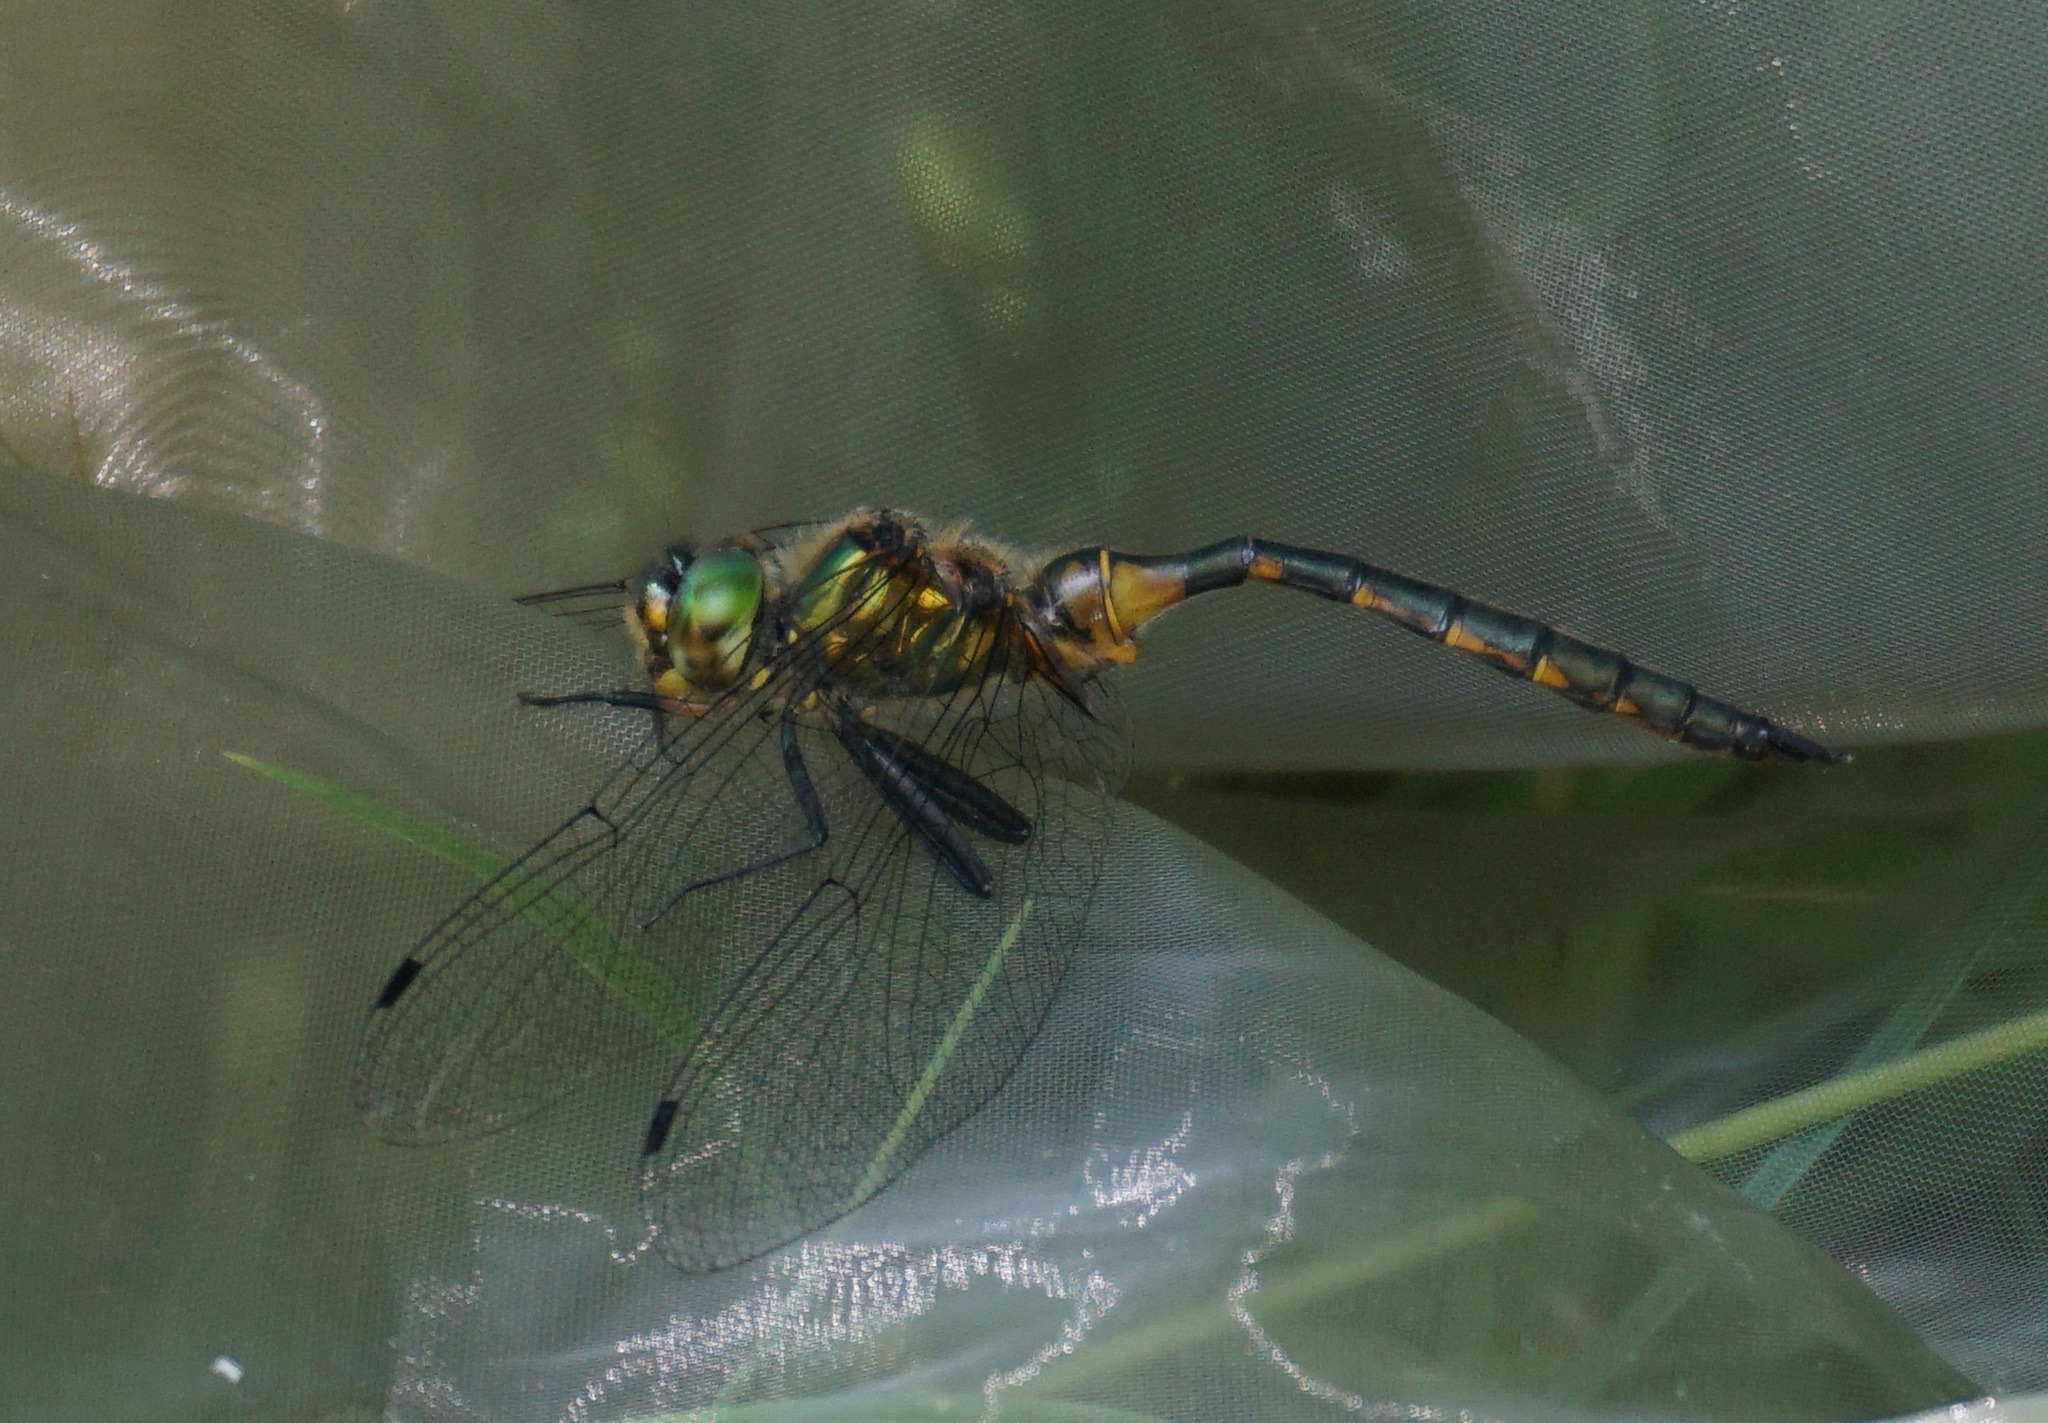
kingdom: Animalia
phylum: Arthropoda
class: Insecta
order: Odonata
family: Corduliidae
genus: Somatochlora
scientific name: Somatochlora flavomaculata
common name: Yellow-spotted emerald
